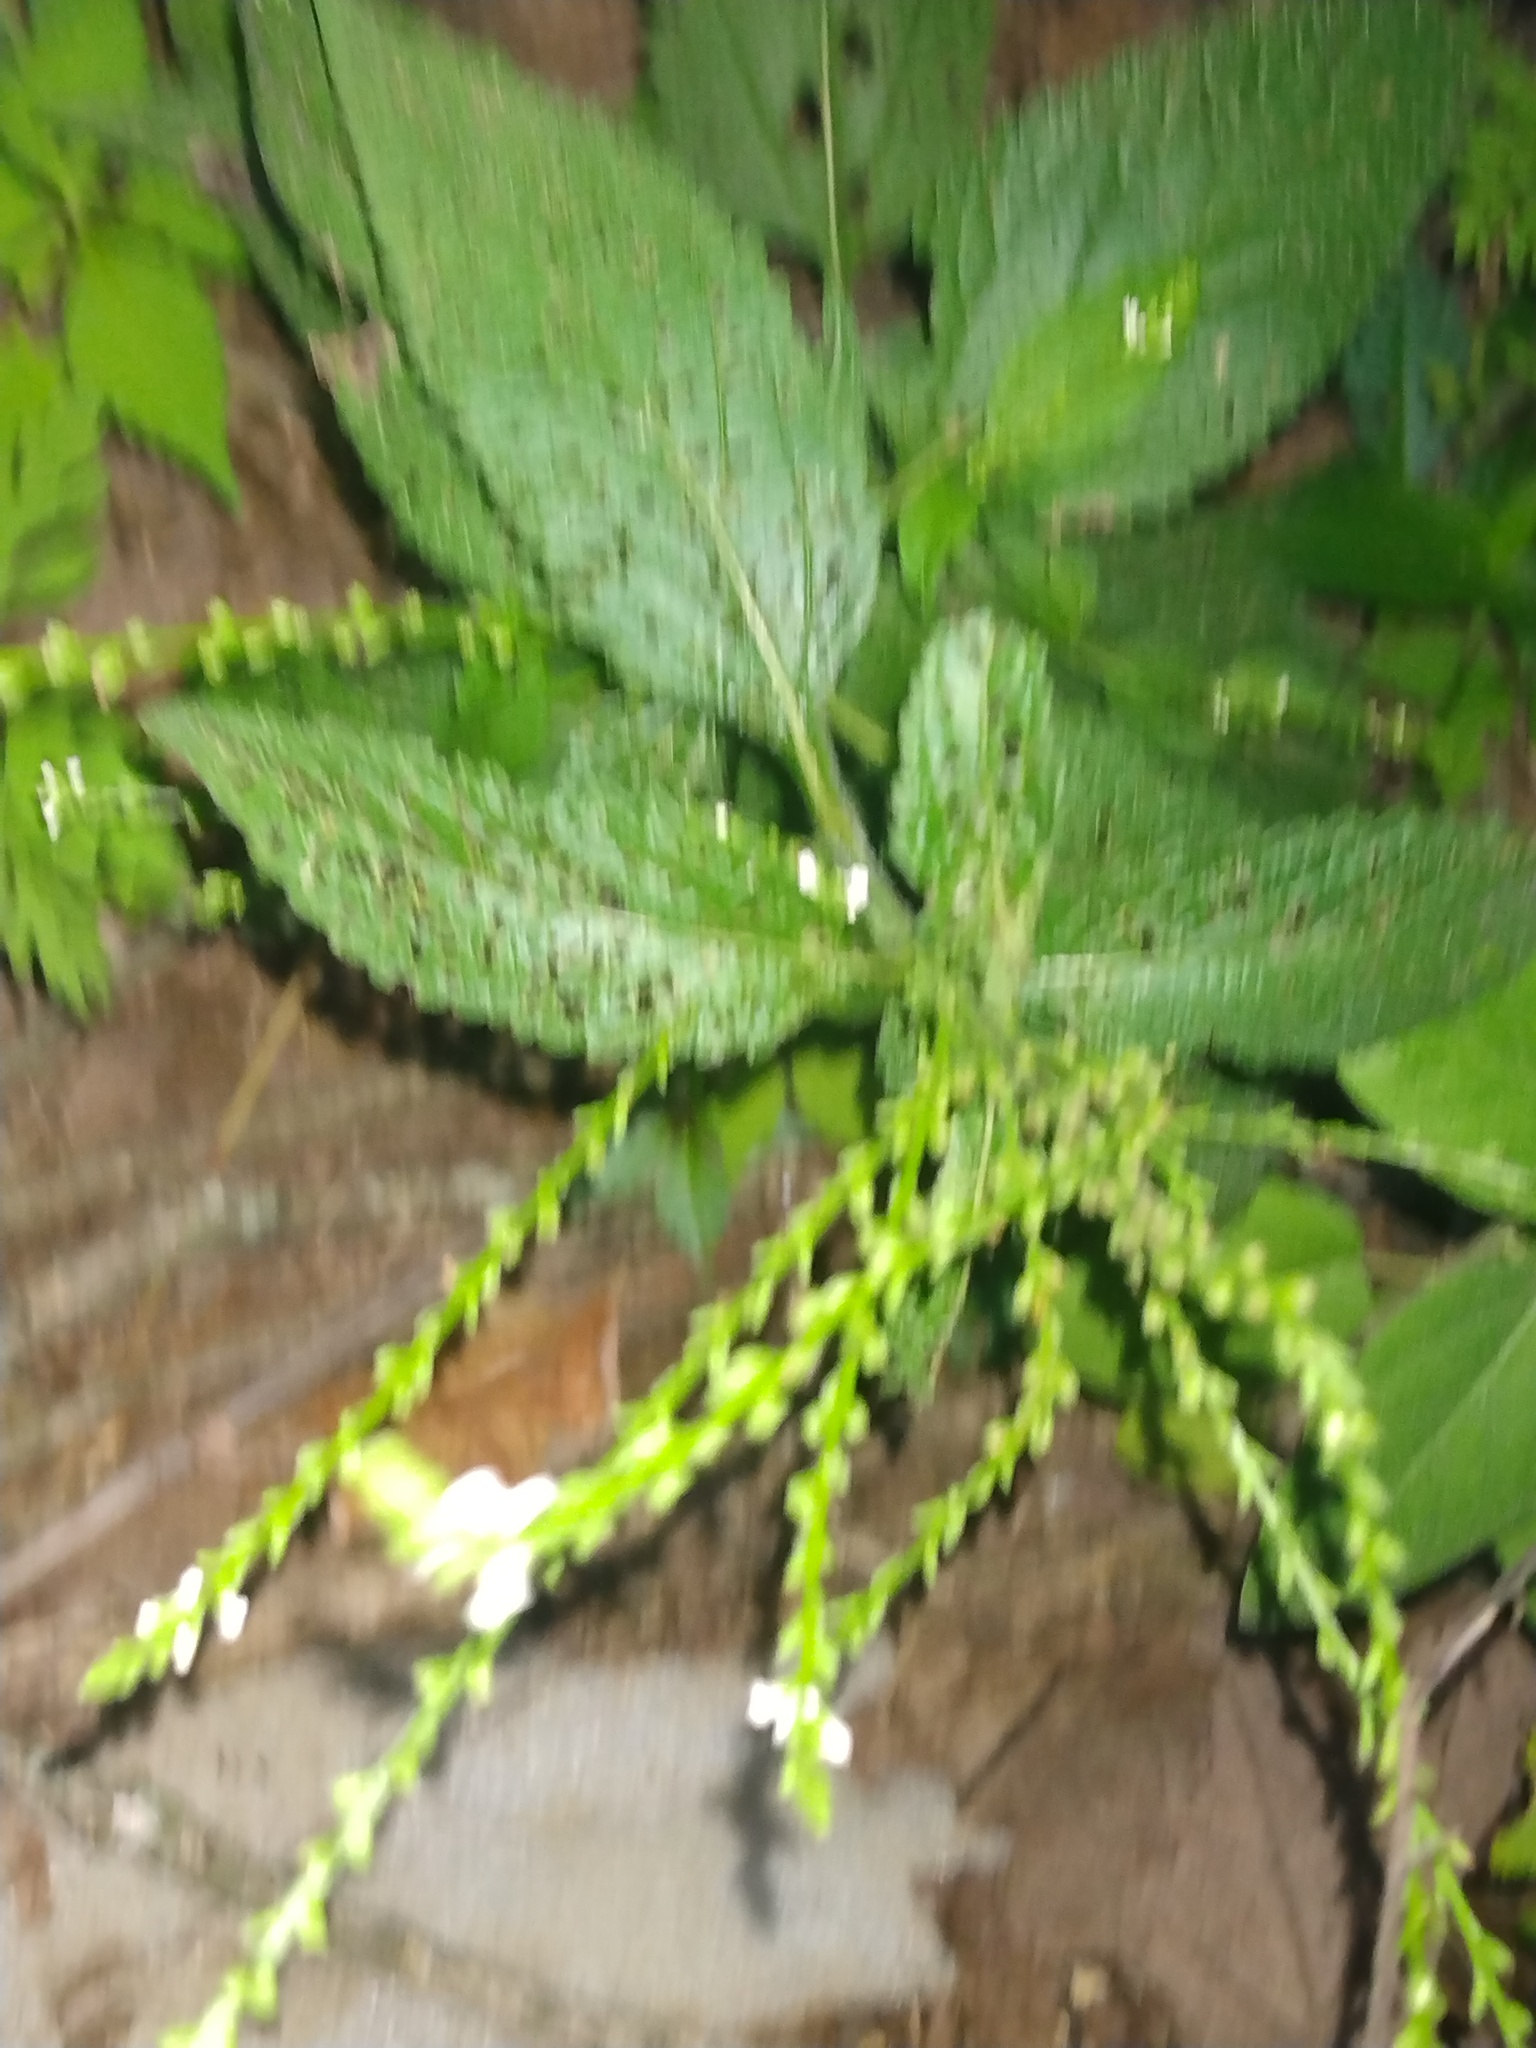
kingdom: Plantae
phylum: Tracheophyta
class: Magnoliopsida
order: Lamiales
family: Verbenaceae
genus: Verbena
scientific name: Verbena urticifolia
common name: Nettle-leaved vervain
